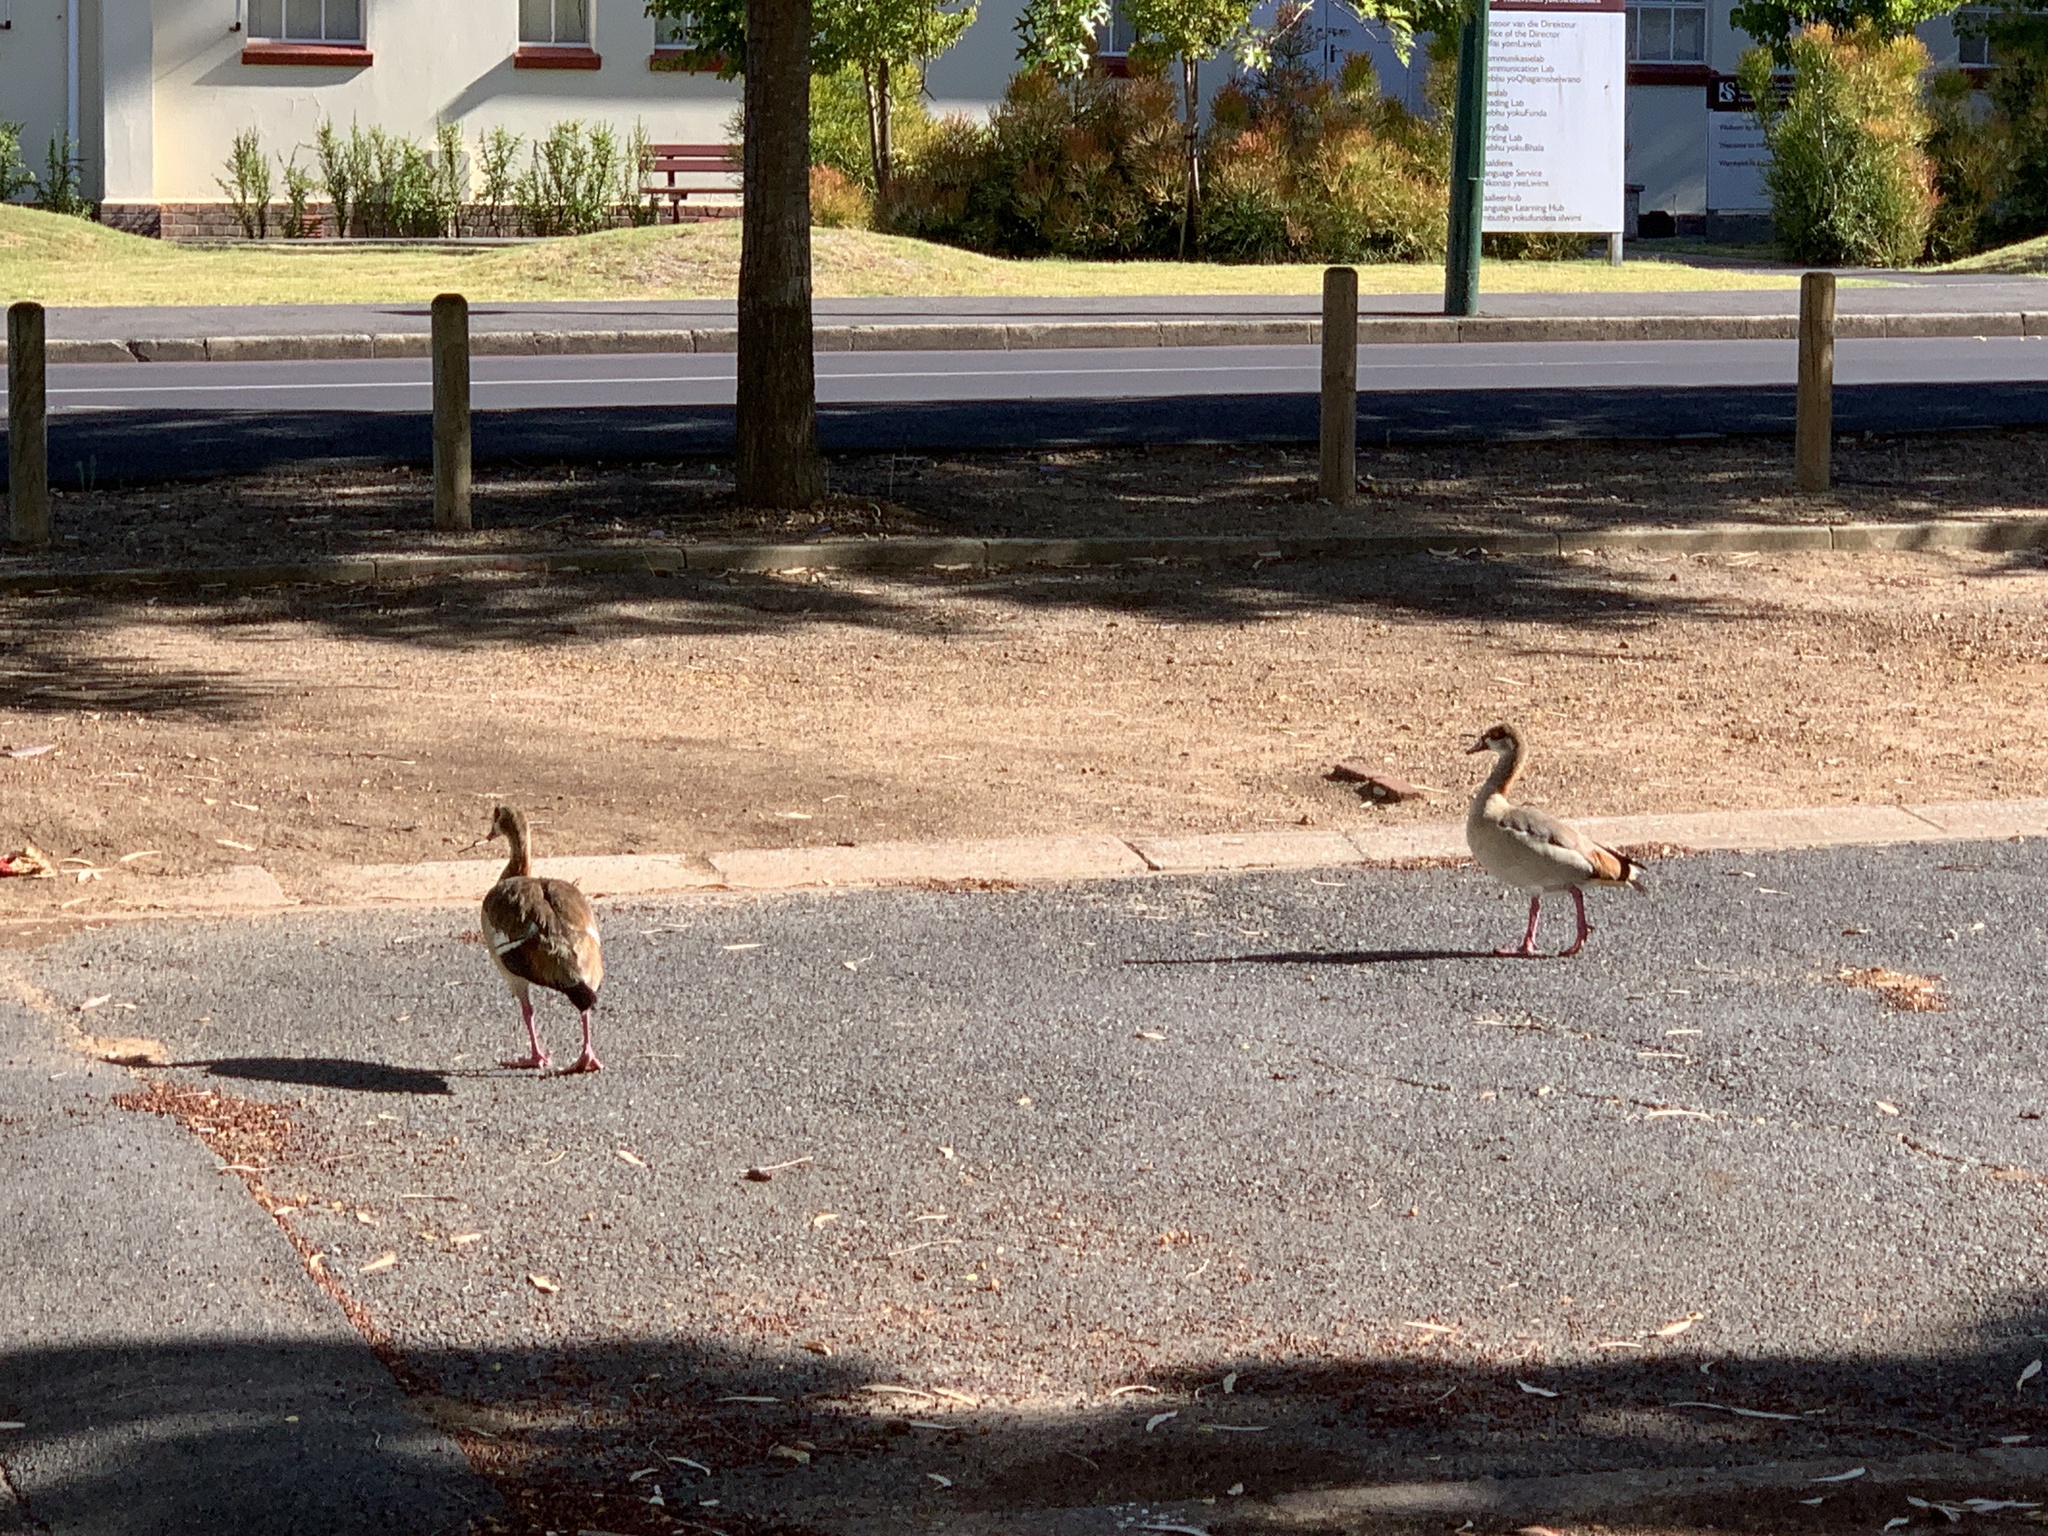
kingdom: Animalia
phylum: Chordata
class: Aves
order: Anseriformes
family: Anatidae
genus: Alopochen
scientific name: Alopochen aegyptiaca
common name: Egyptian goose
